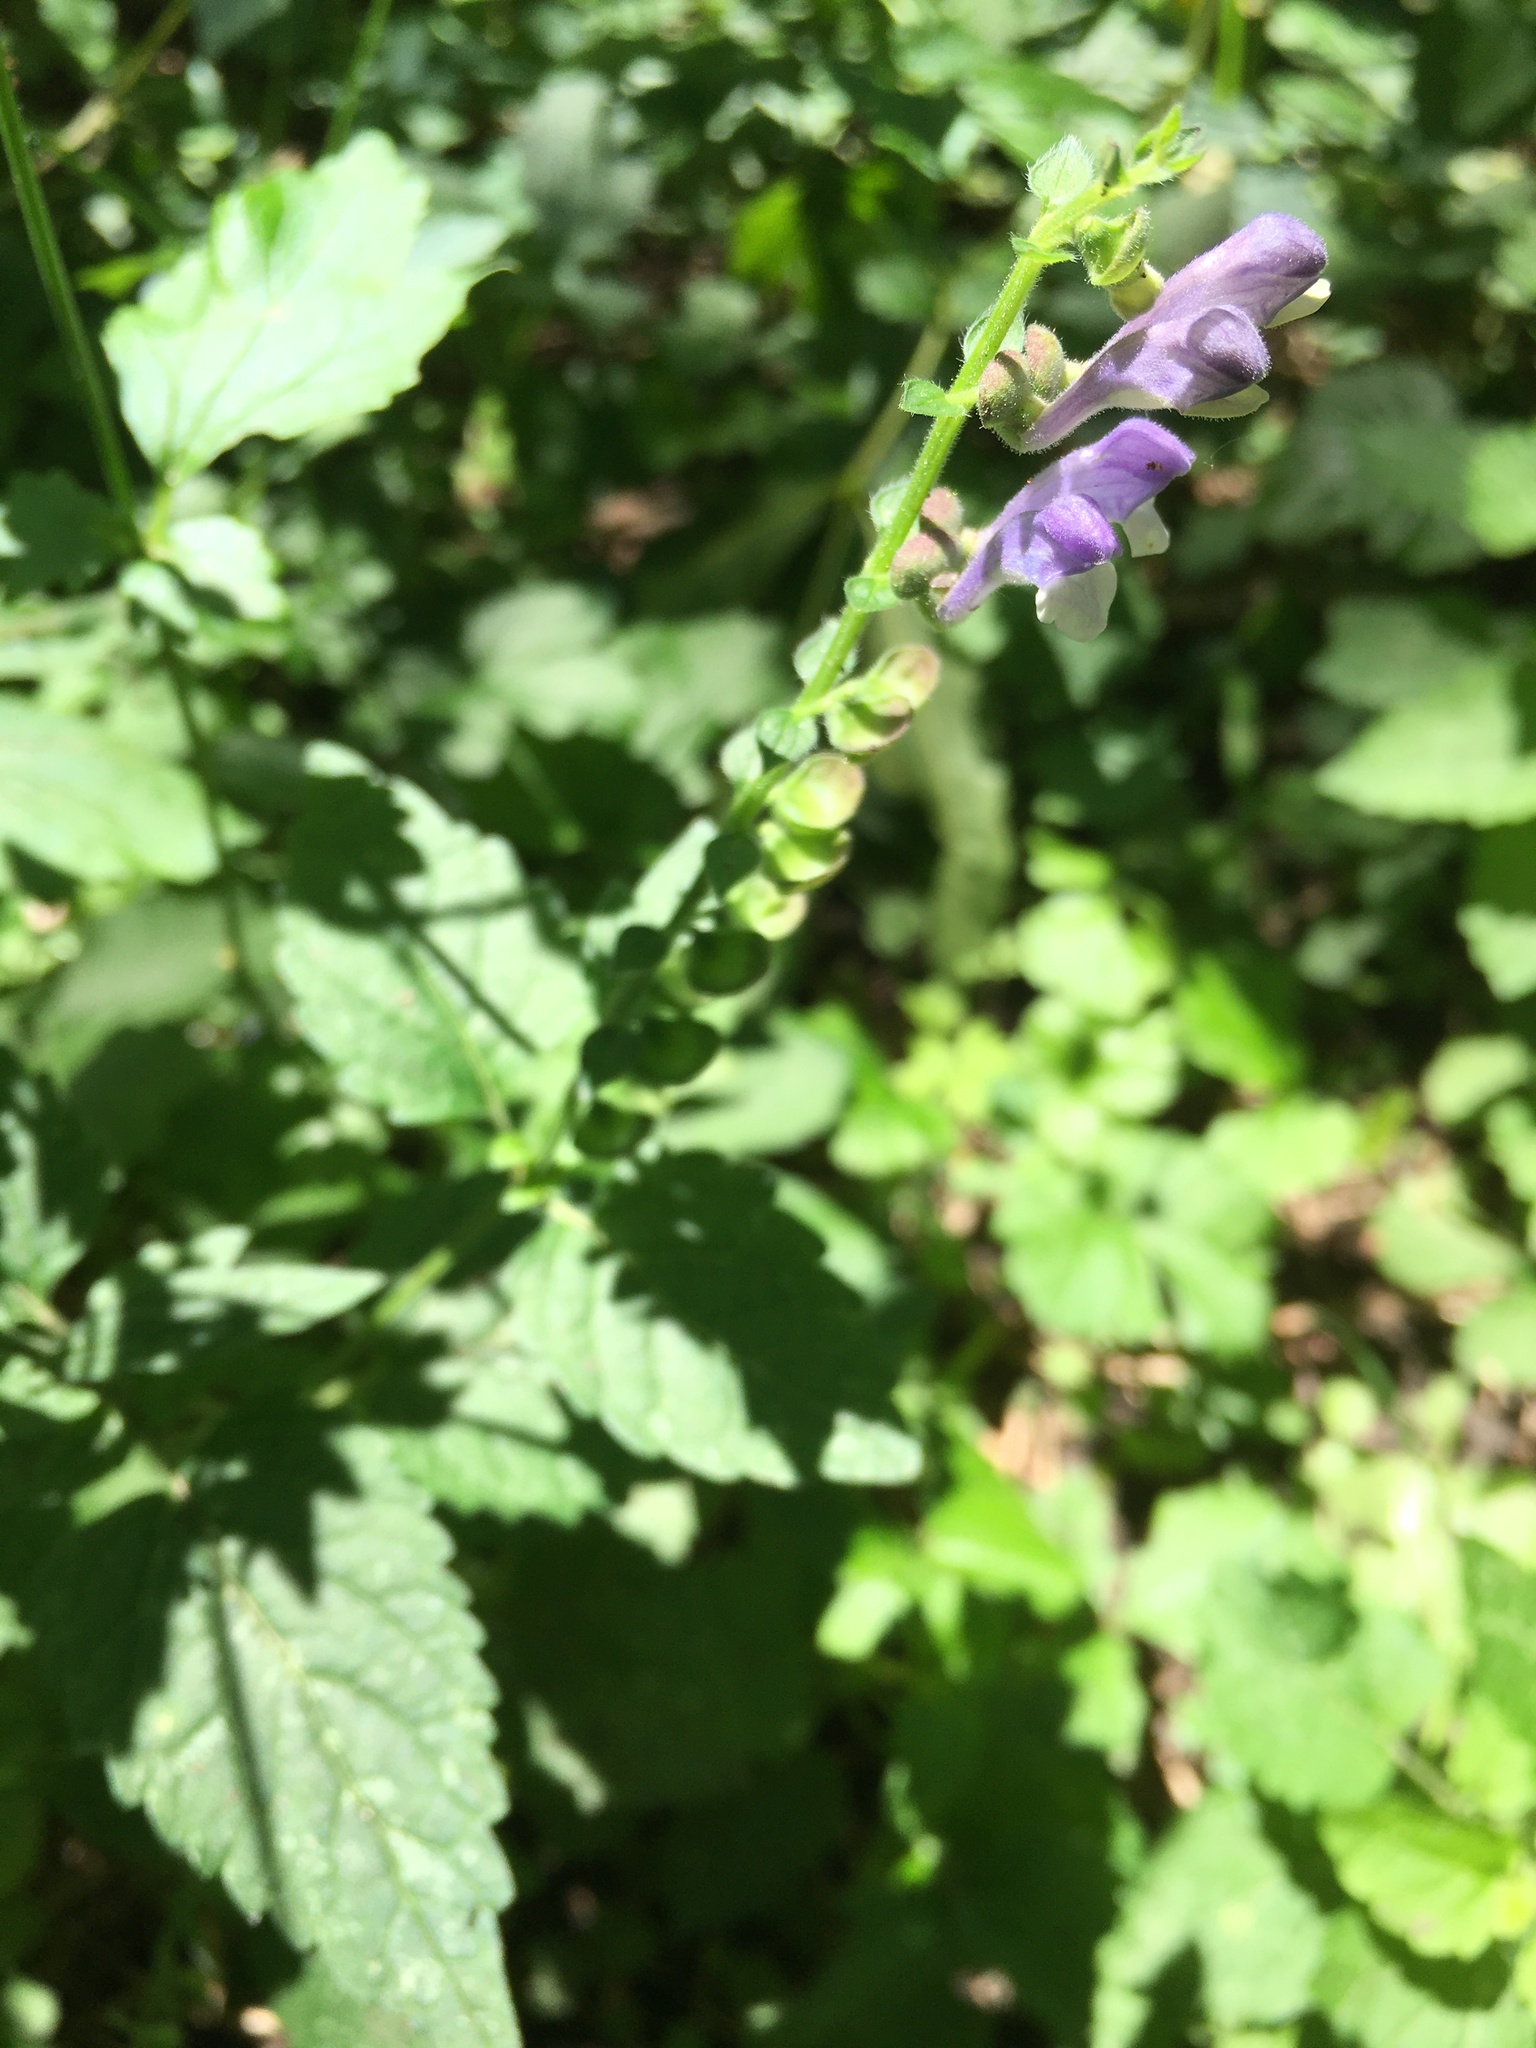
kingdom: Plantae
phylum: Tracheophyta
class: Magnoliopsida
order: Lamiales
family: Lamiaceae
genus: Scutellaria
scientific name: Scutellaria altissima
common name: Somerset skullcap
